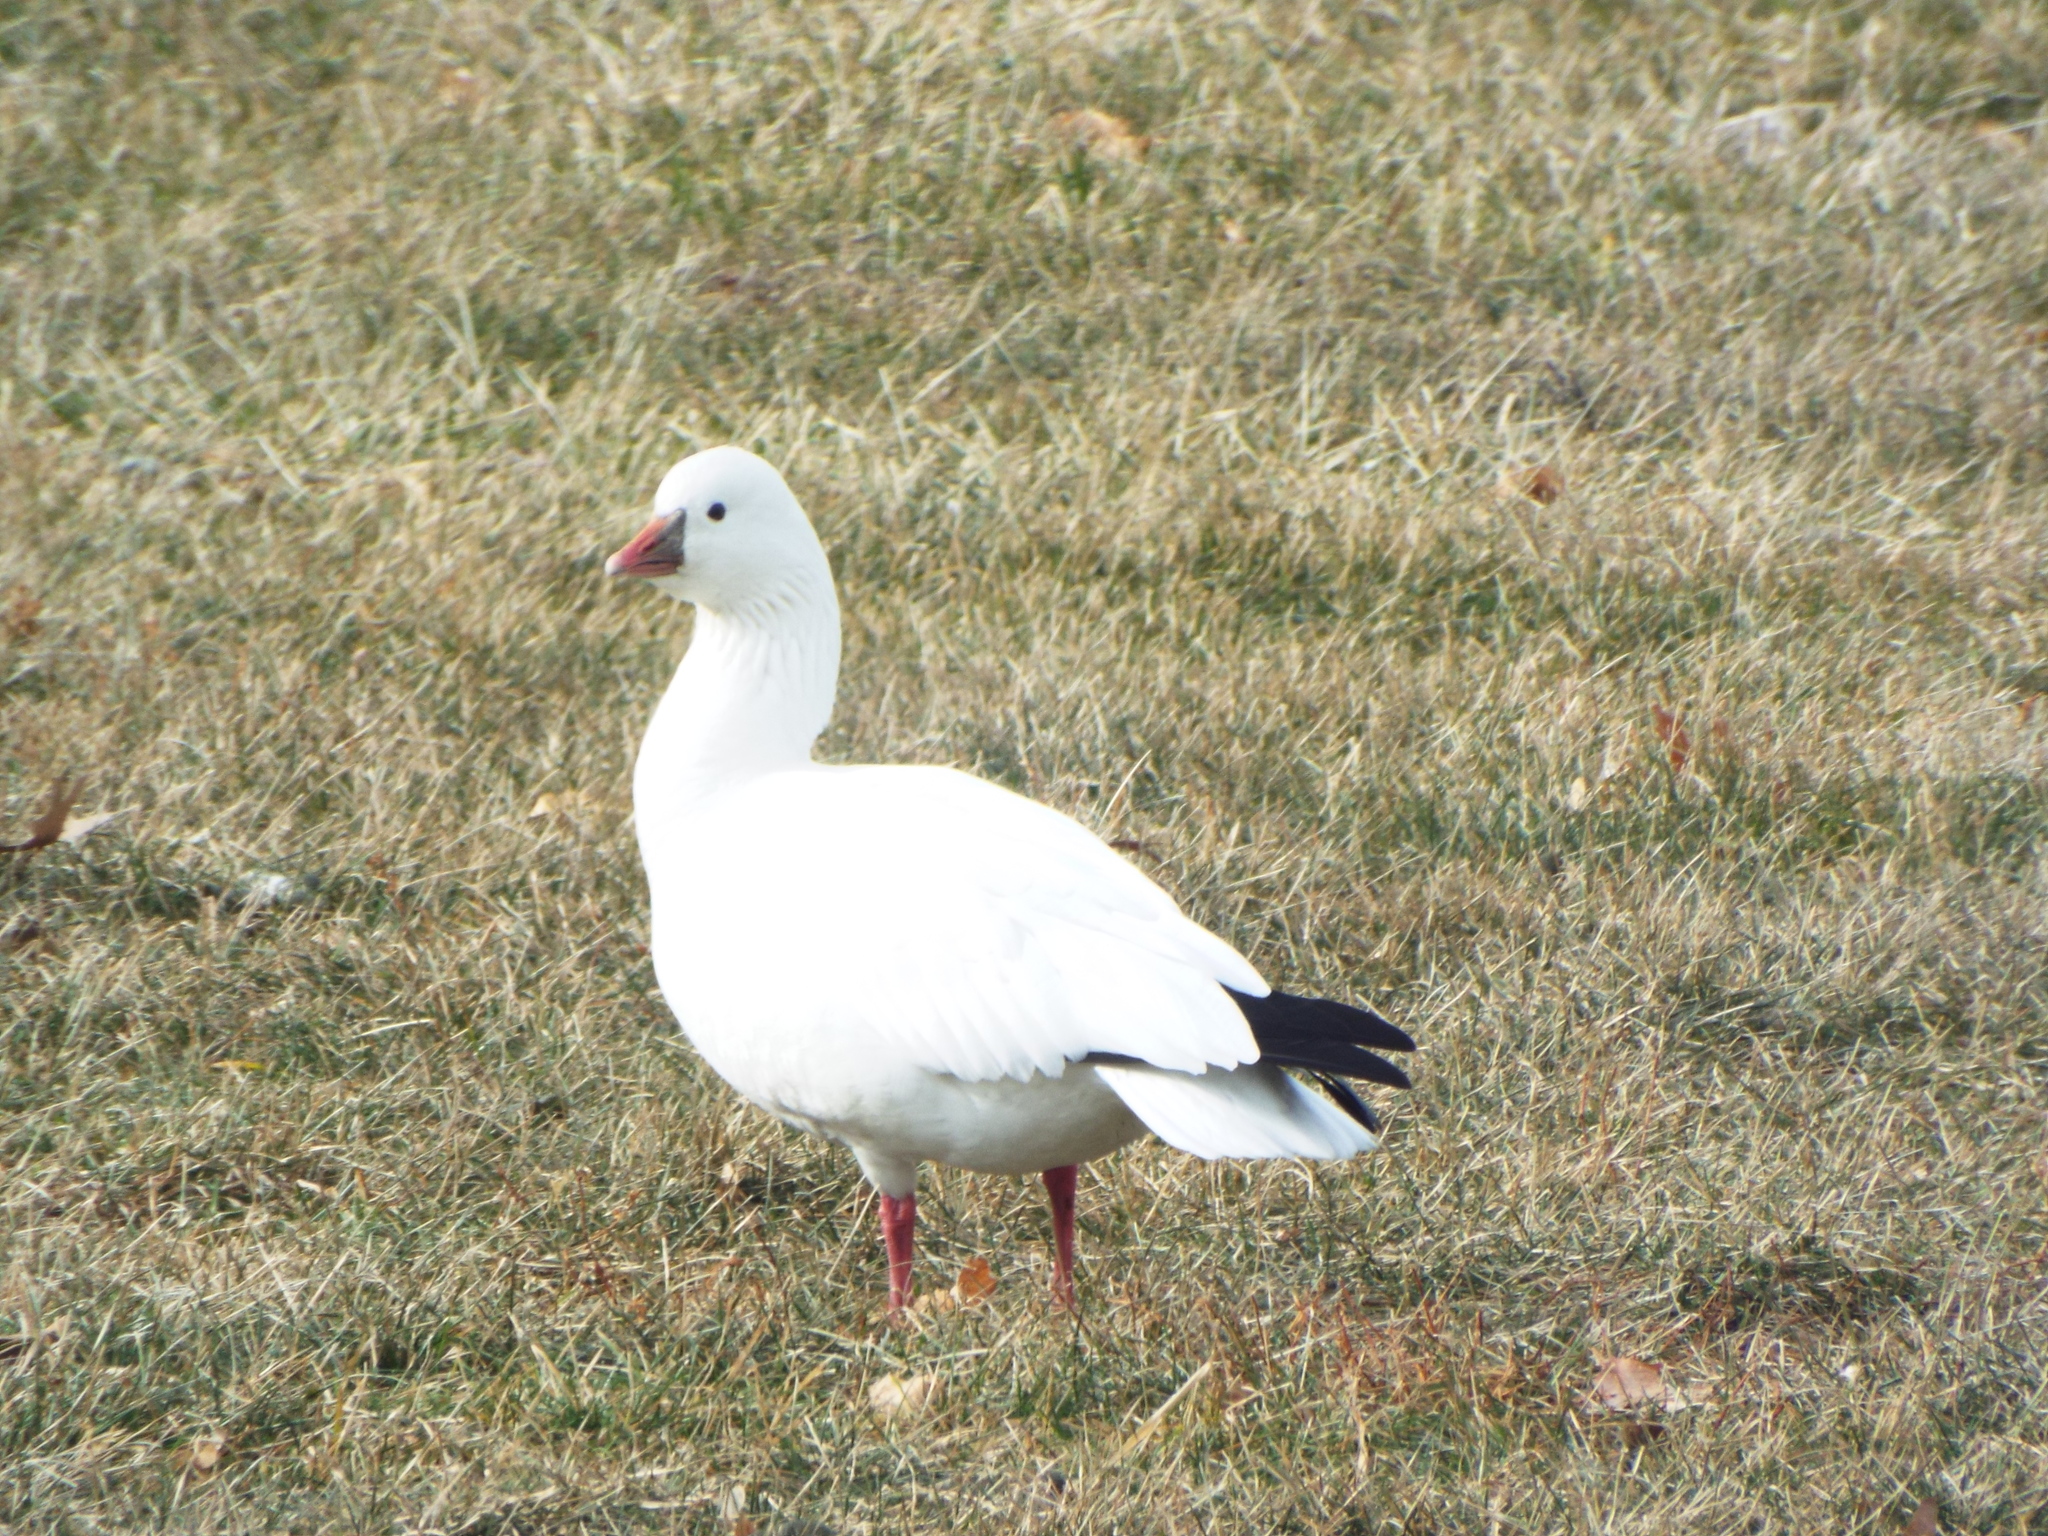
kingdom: Animalia
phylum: Chordata
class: Aves
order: Anseriformes
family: Anatidae
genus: Anser
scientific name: Anser rossii
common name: Ross's goose
